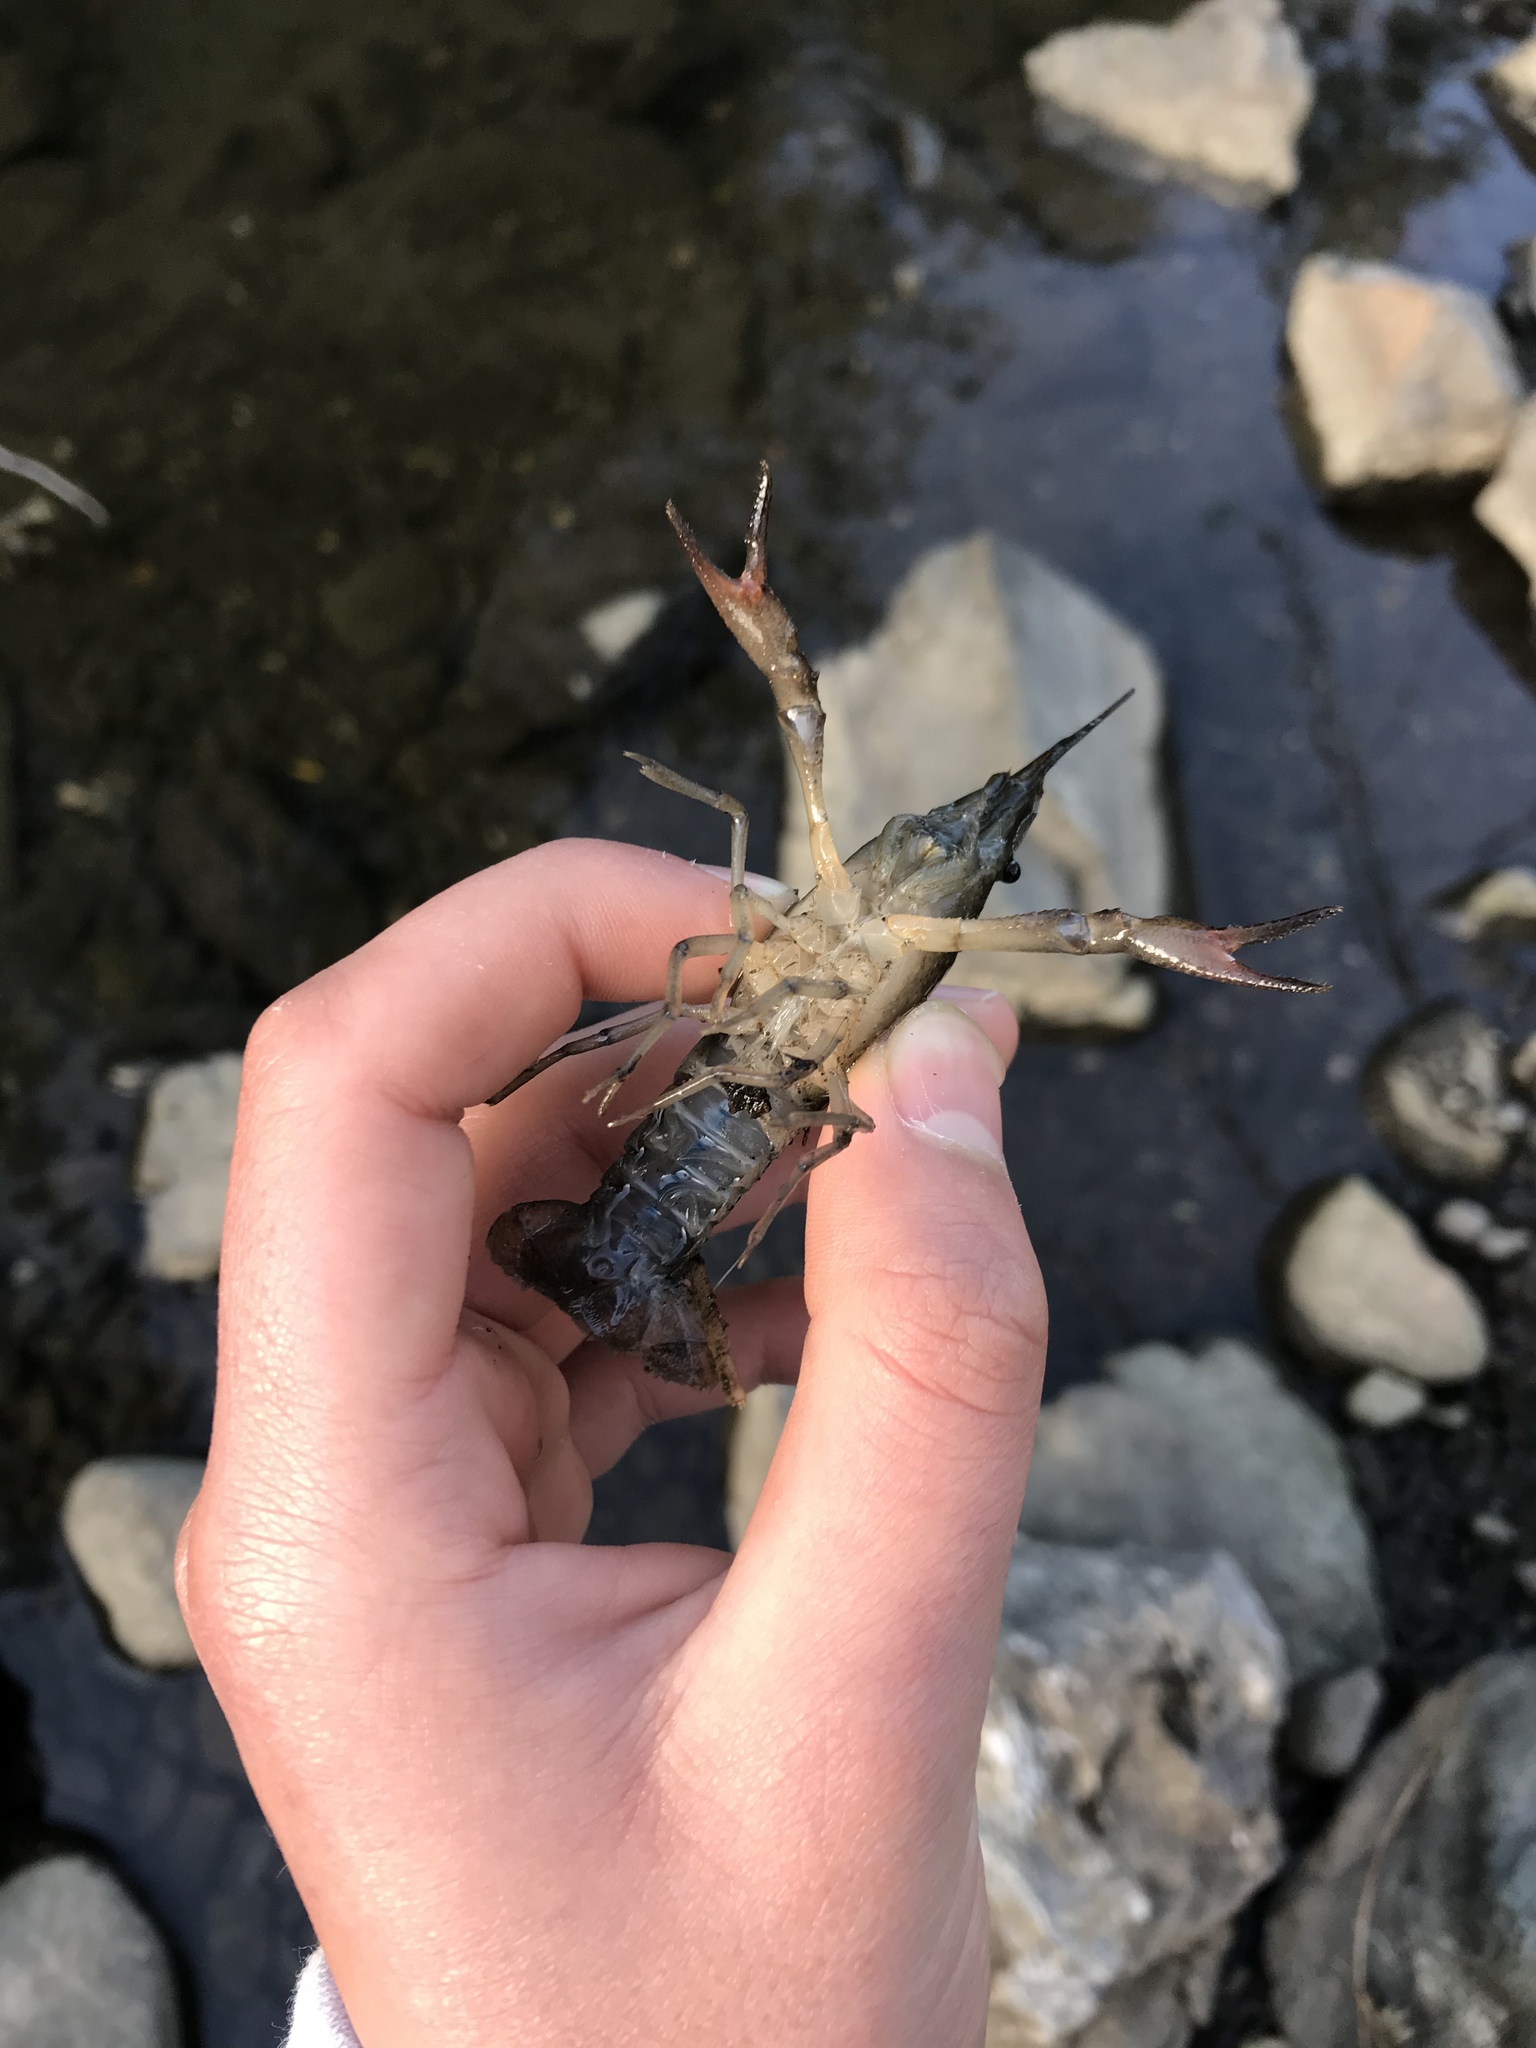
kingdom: Animalia
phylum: Arthropoda
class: Malacostraca
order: Decapoda
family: Cambaridae
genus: Procambarus
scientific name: Procambarus clarkii
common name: Red swamp crayfish
